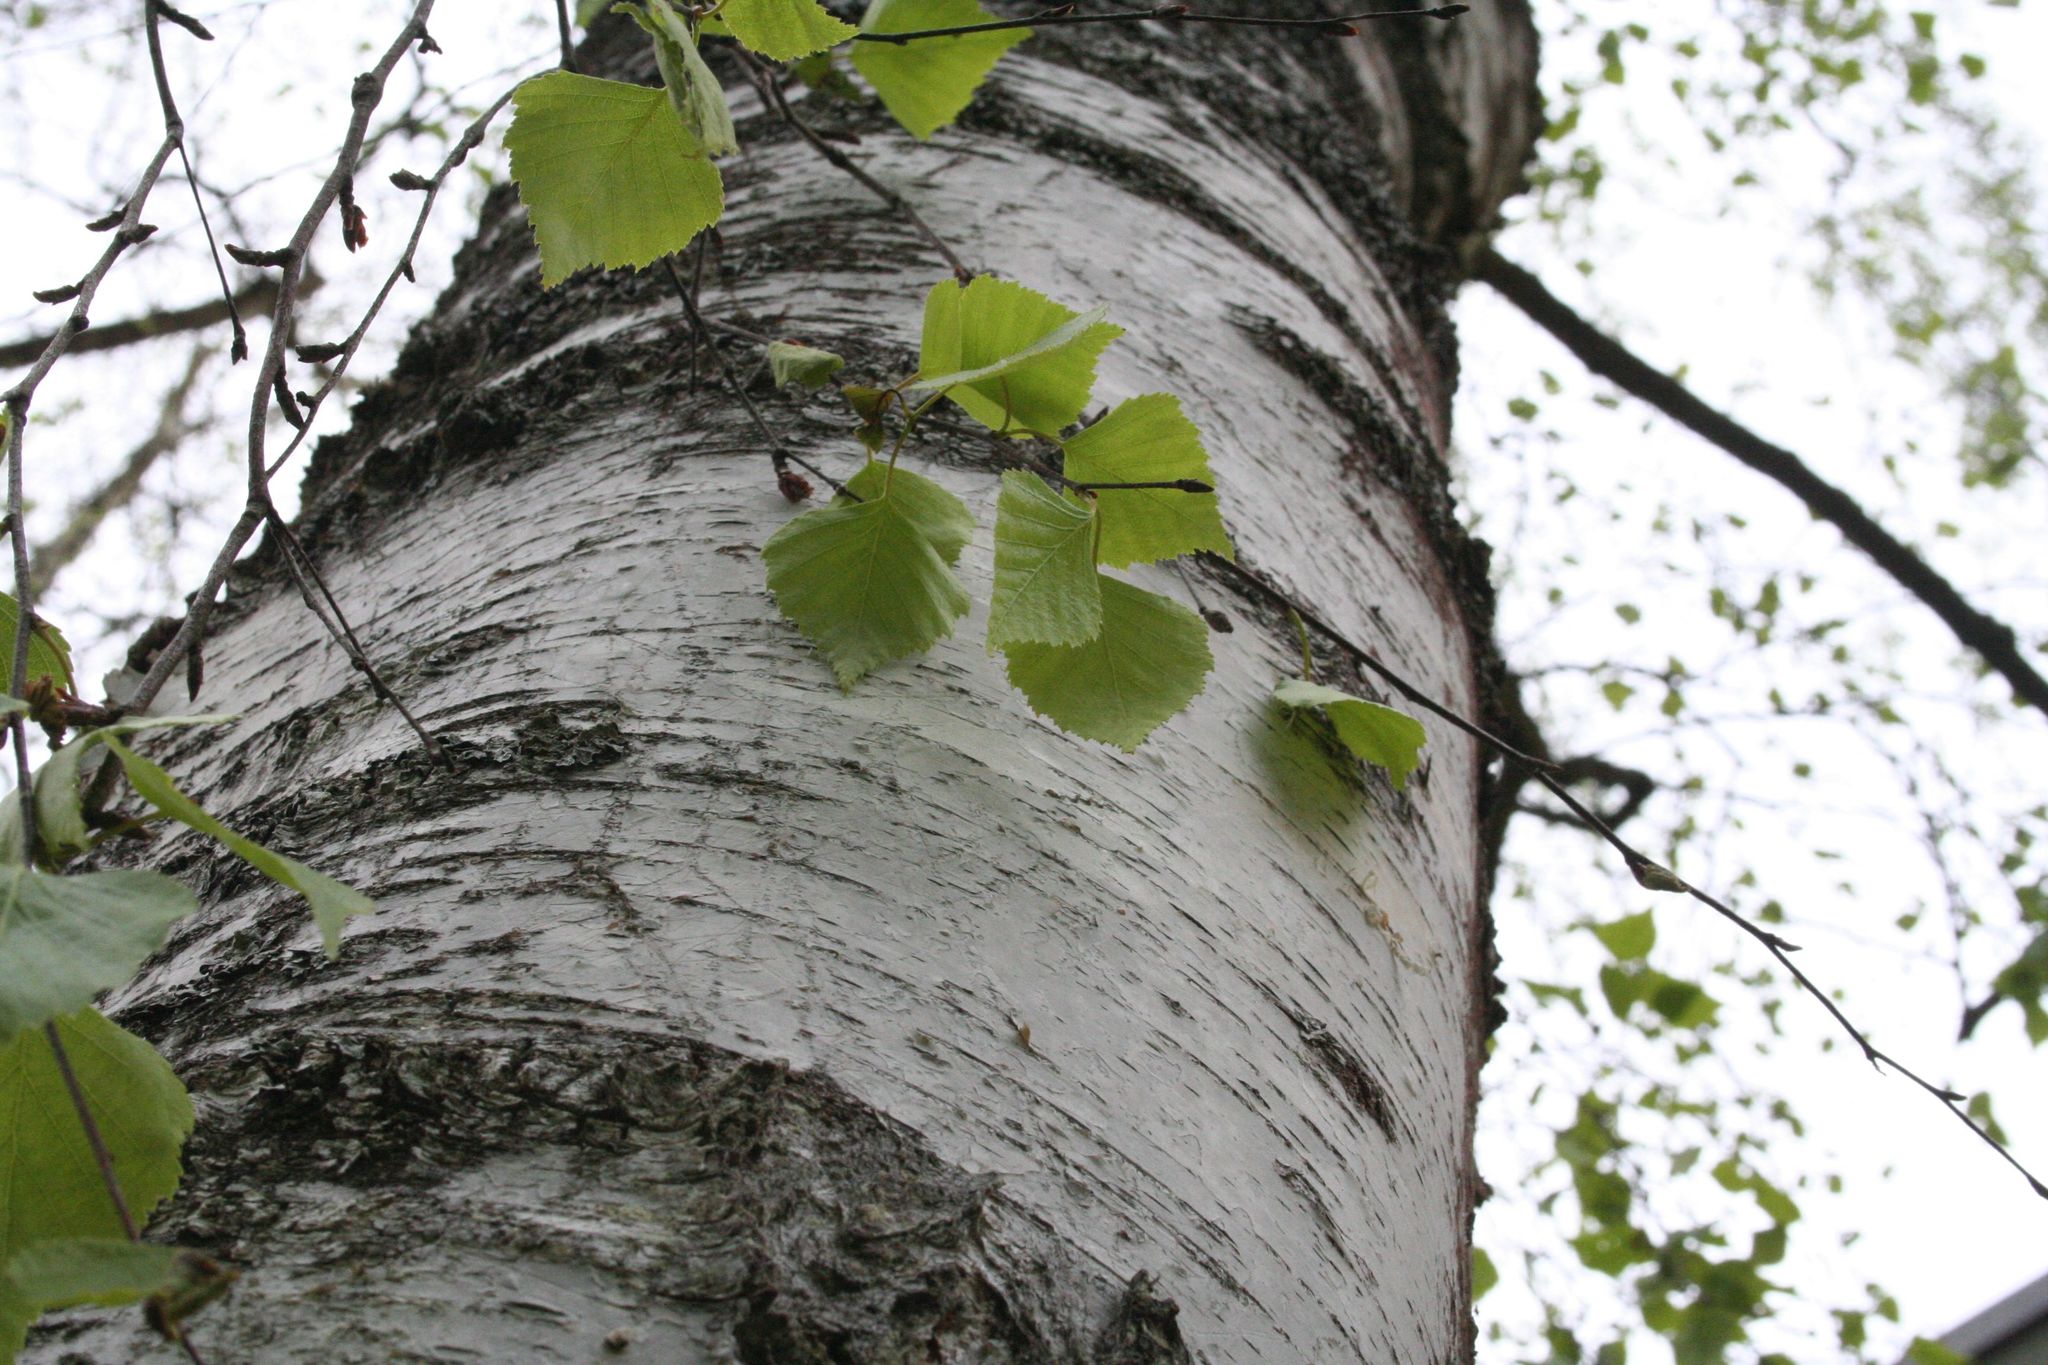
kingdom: Plantae
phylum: Tracheophyta
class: Magnoliopsida
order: Fagales
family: Betulaceae
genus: Betula
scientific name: Betula pendula
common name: Silver birch
